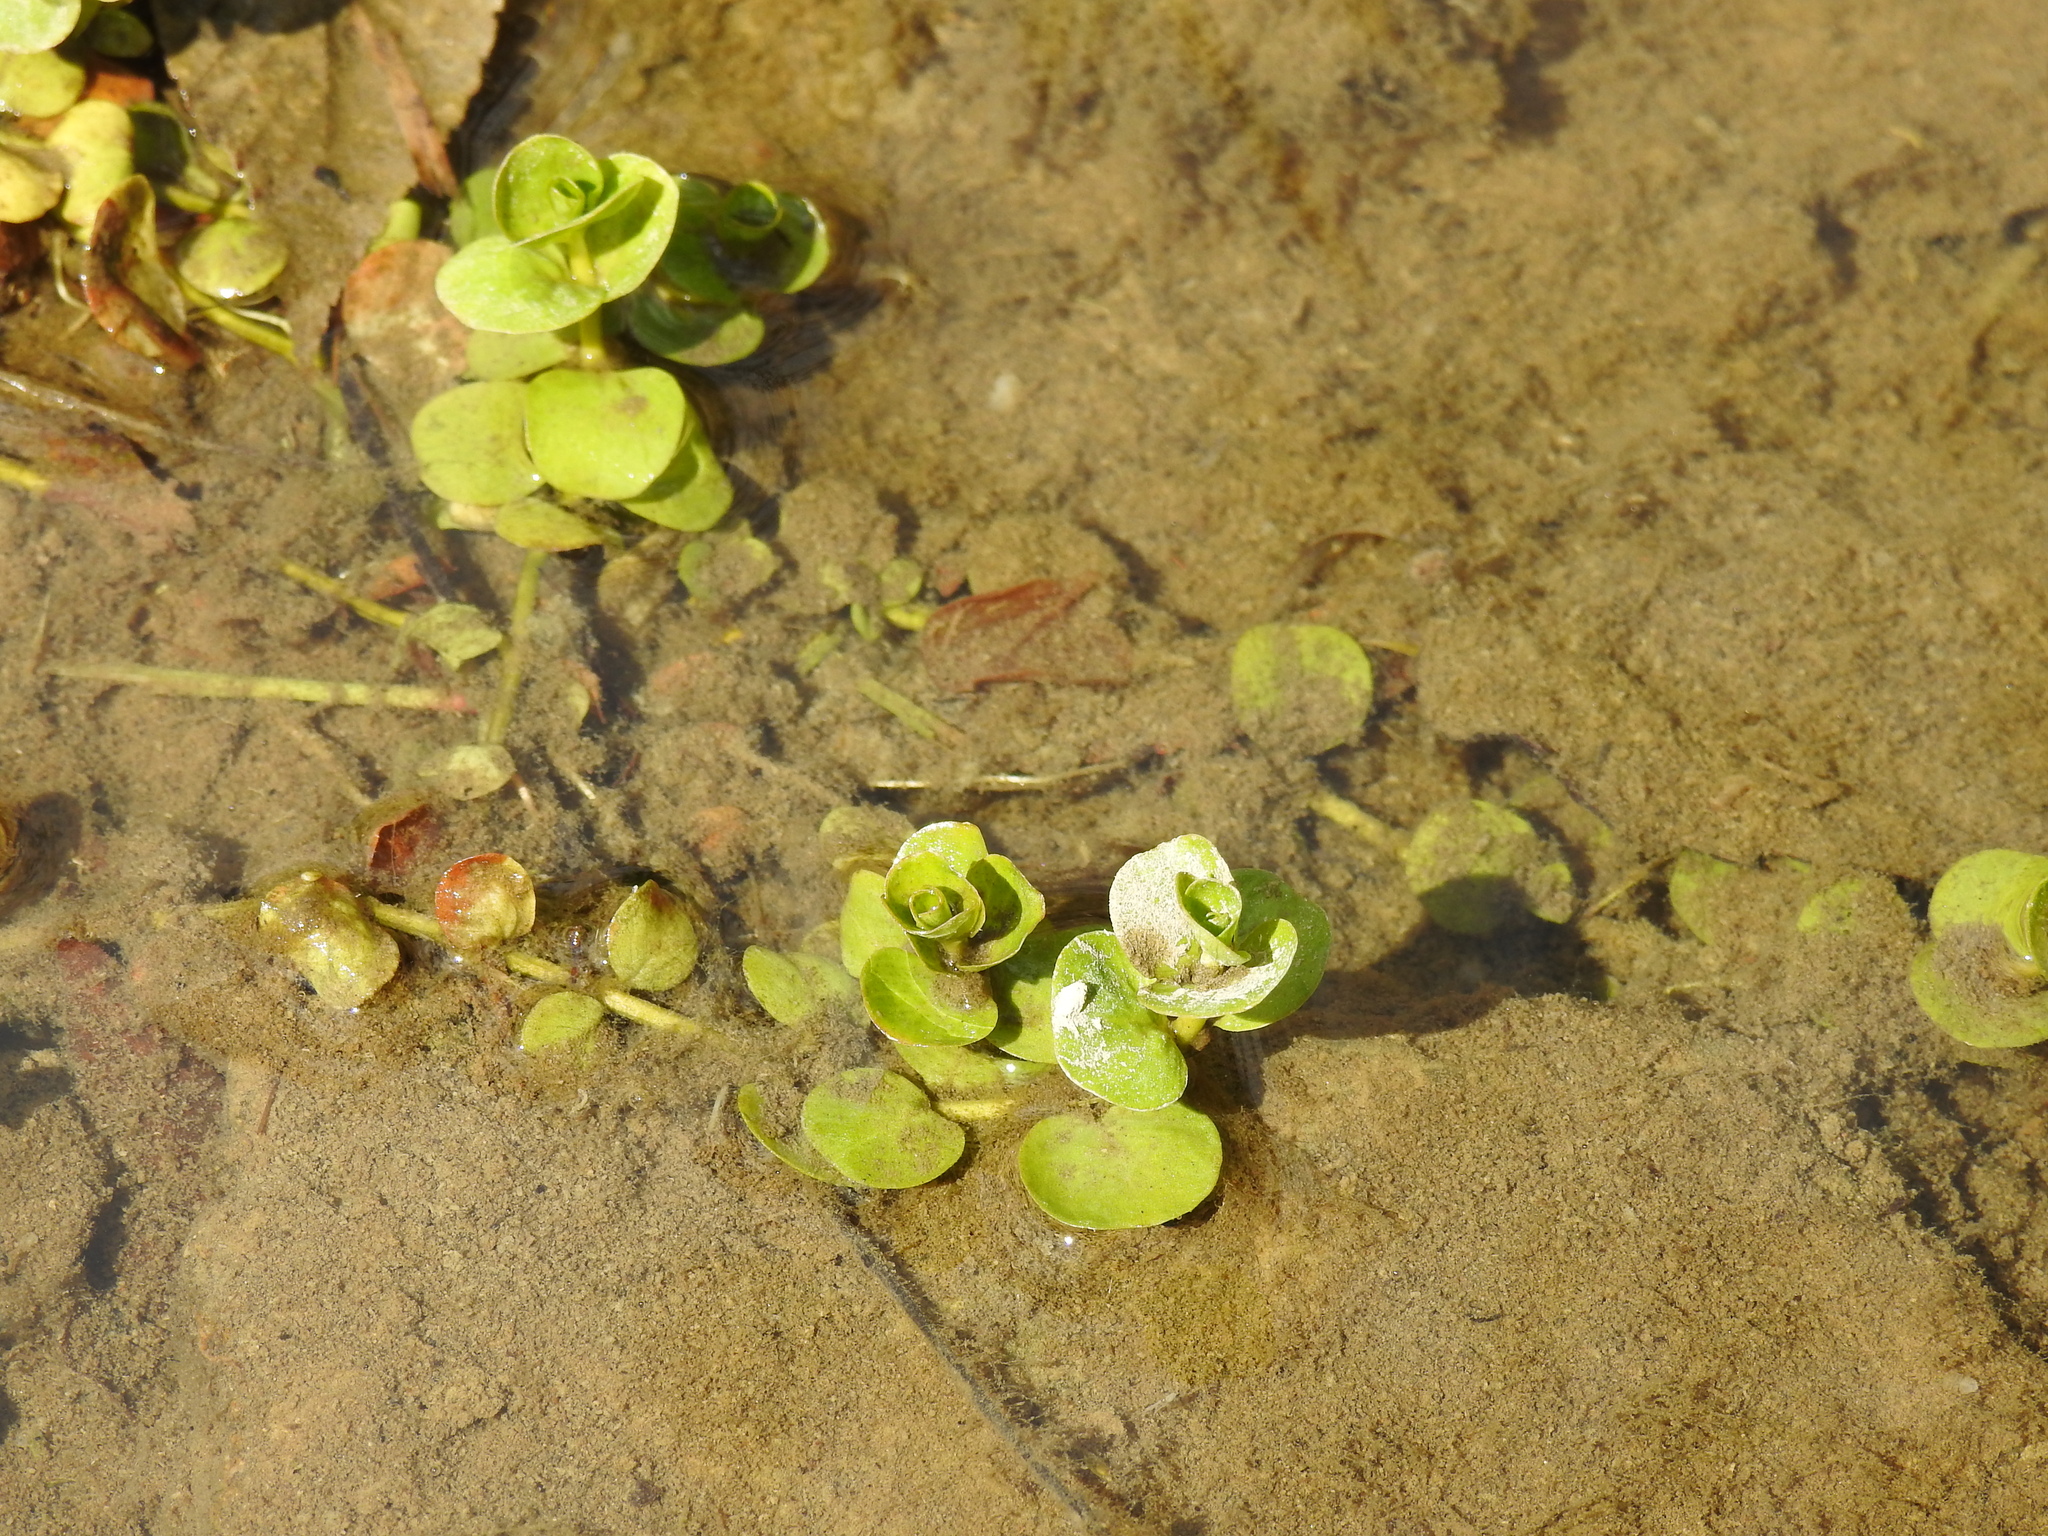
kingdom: Plantae
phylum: Tracheophyta
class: Magnoliopsida
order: Ericales
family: Primulaceae
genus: Lysimachia
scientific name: Lysimachia nummularia
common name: Moneywort
